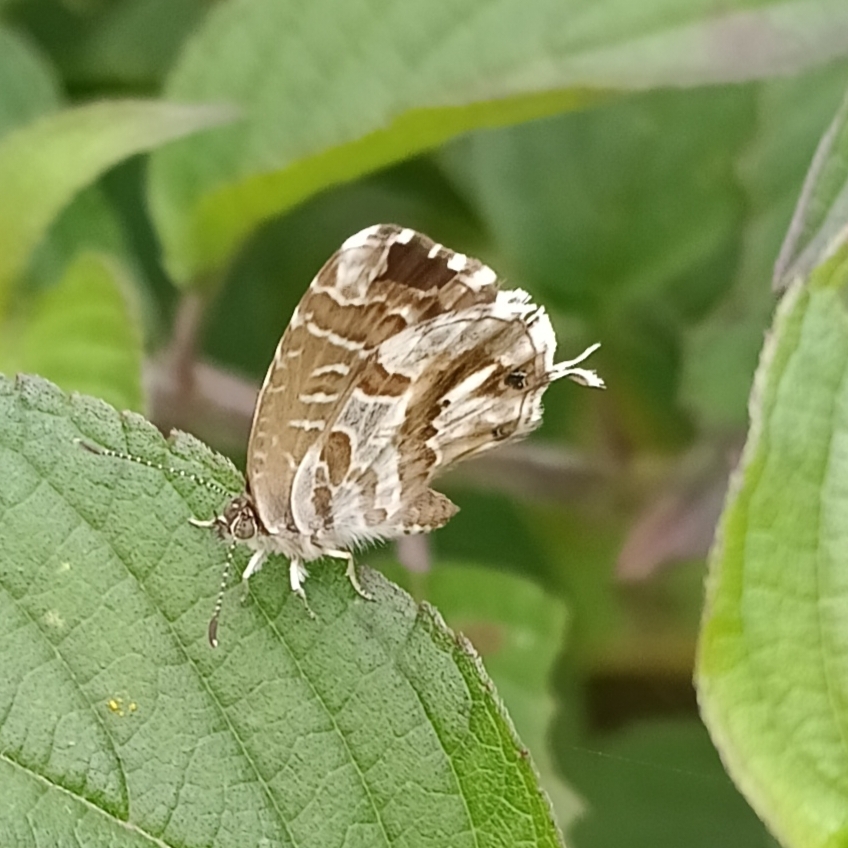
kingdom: Animalia
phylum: Arthropoda
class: Insecta
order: Lepidoptera
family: Lycaenidae
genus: Cacyreus
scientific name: Cacyreus marshalli
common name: Geranium bronze
